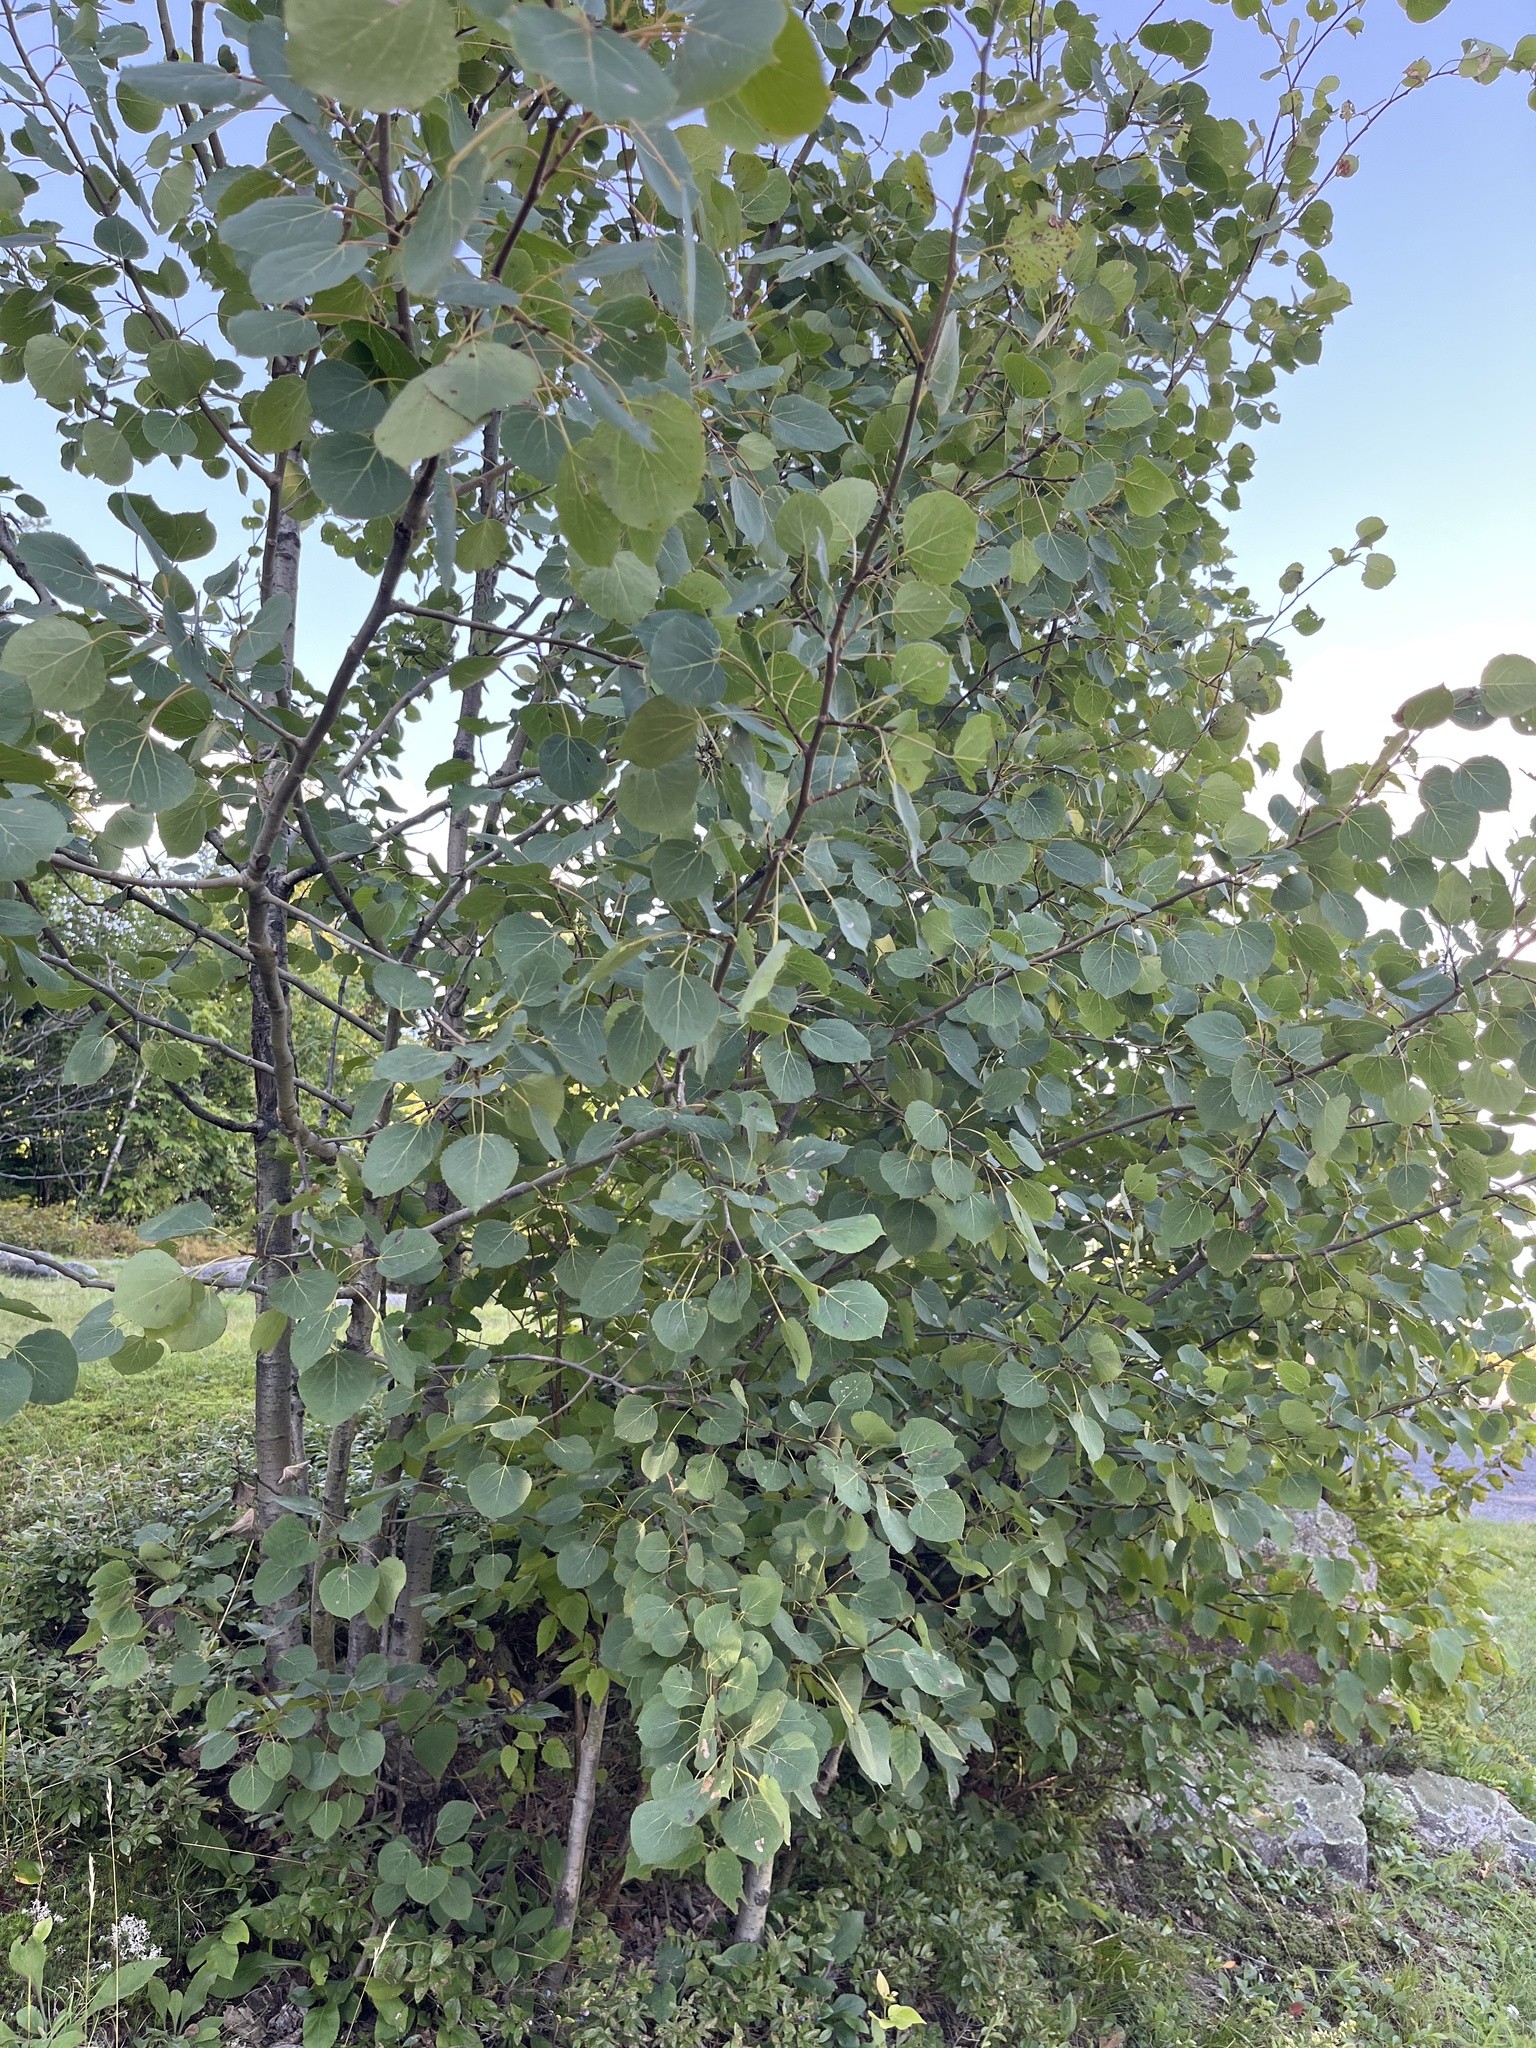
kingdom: Plantae
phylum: Tracheophyta
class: Magnoliopsida
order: Malpighiales
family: Salicaceae
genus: Populus
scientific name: Populus tremuloides
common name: Quaking aspen
